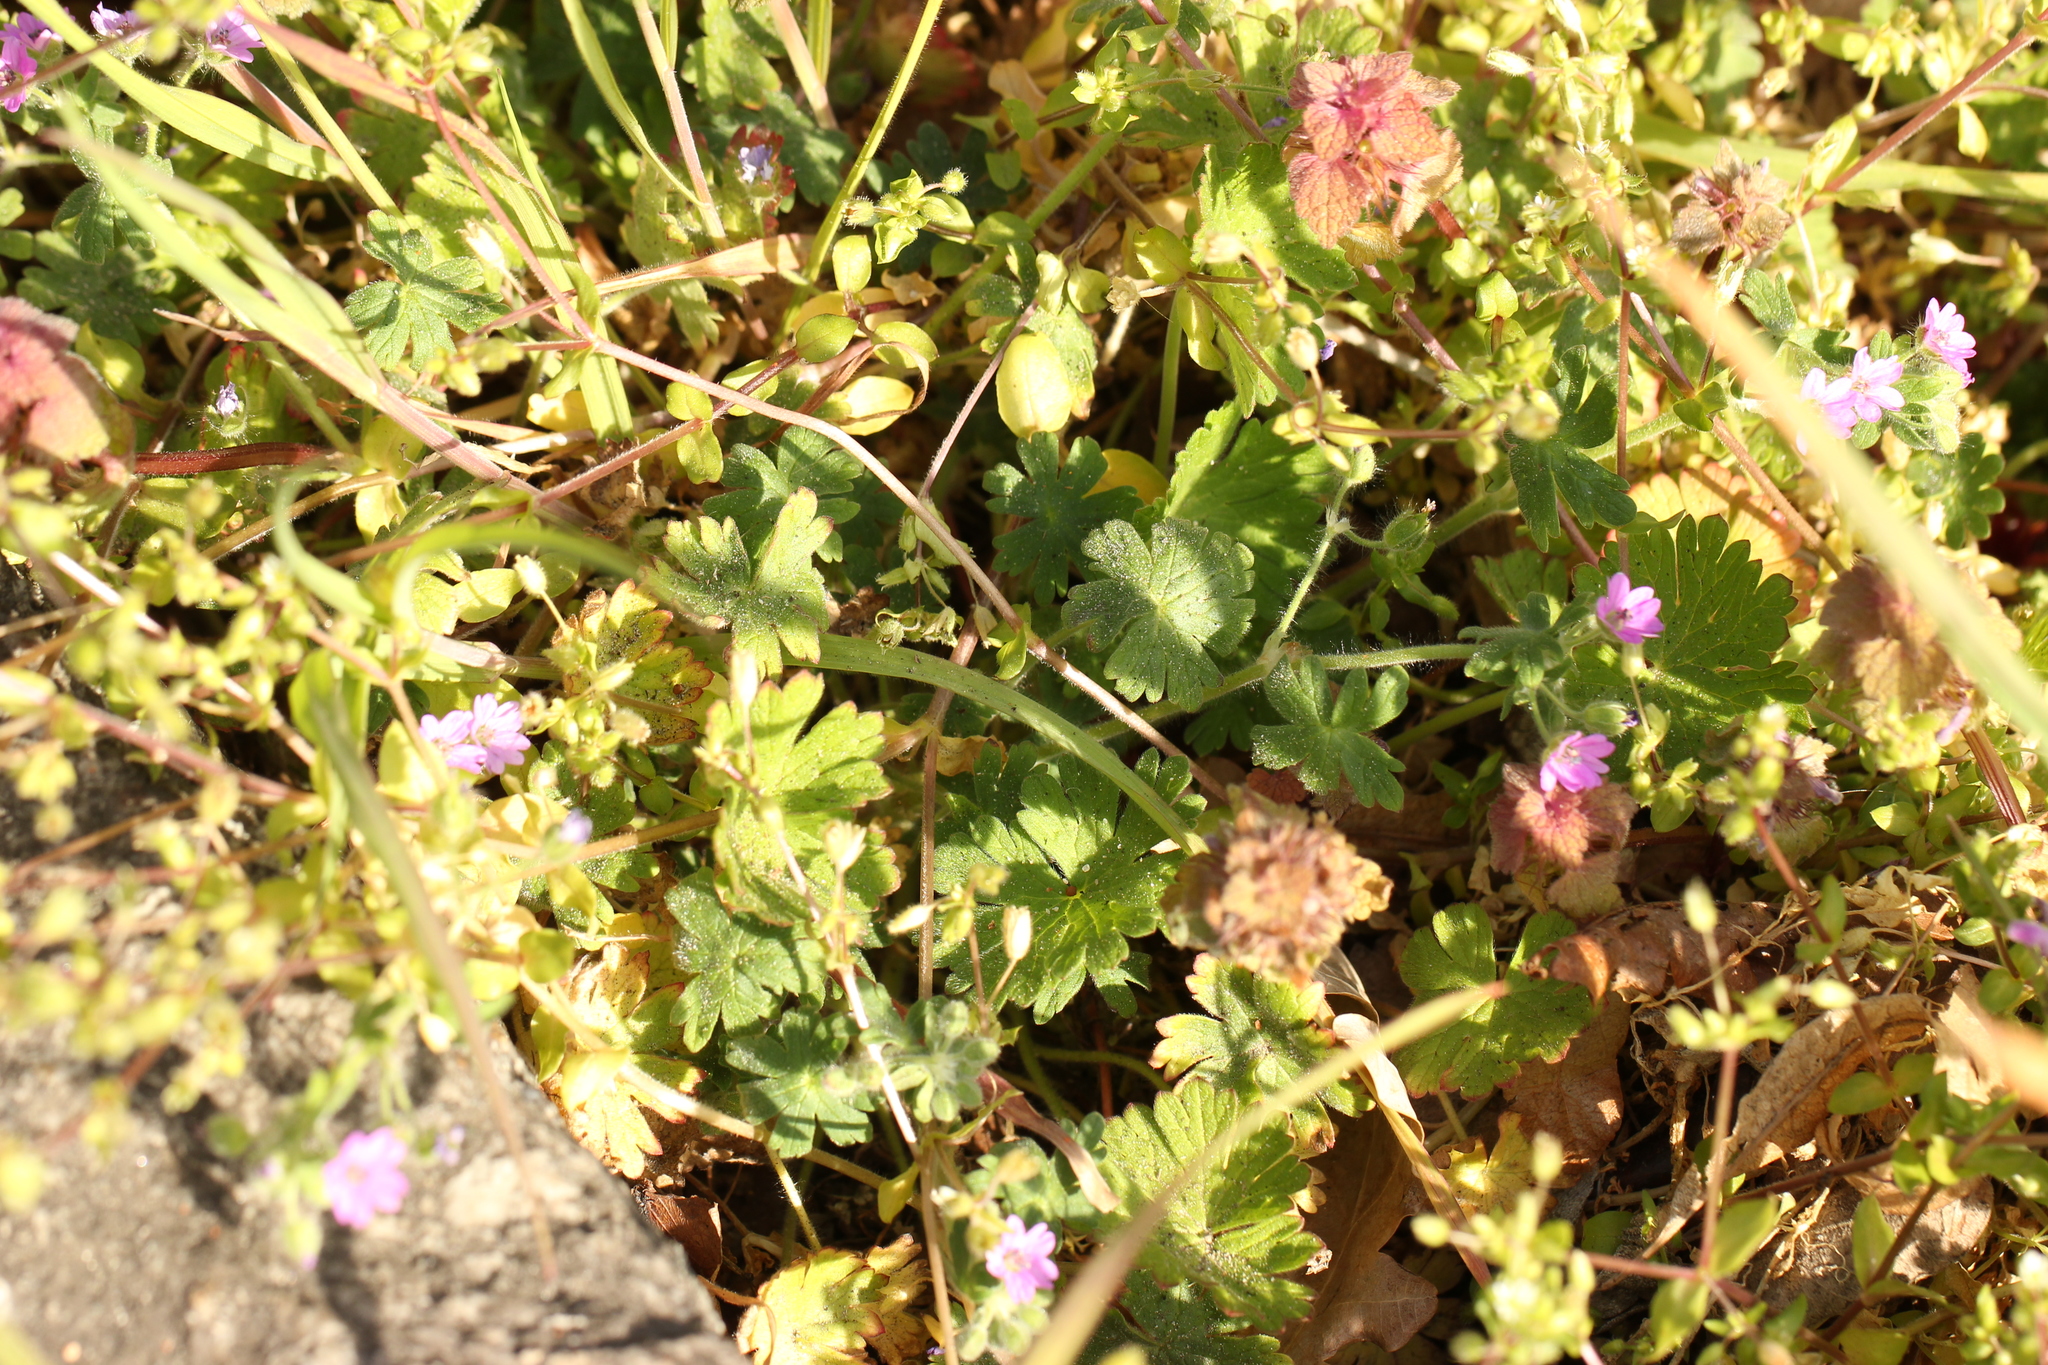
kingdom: Plantae
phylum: Tracheophyta
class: Magnoliopsida
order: Geraniales
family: Geraniaceae
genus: Geranium
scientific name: Geranium molle
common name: Dove's-foot crane's-bill
